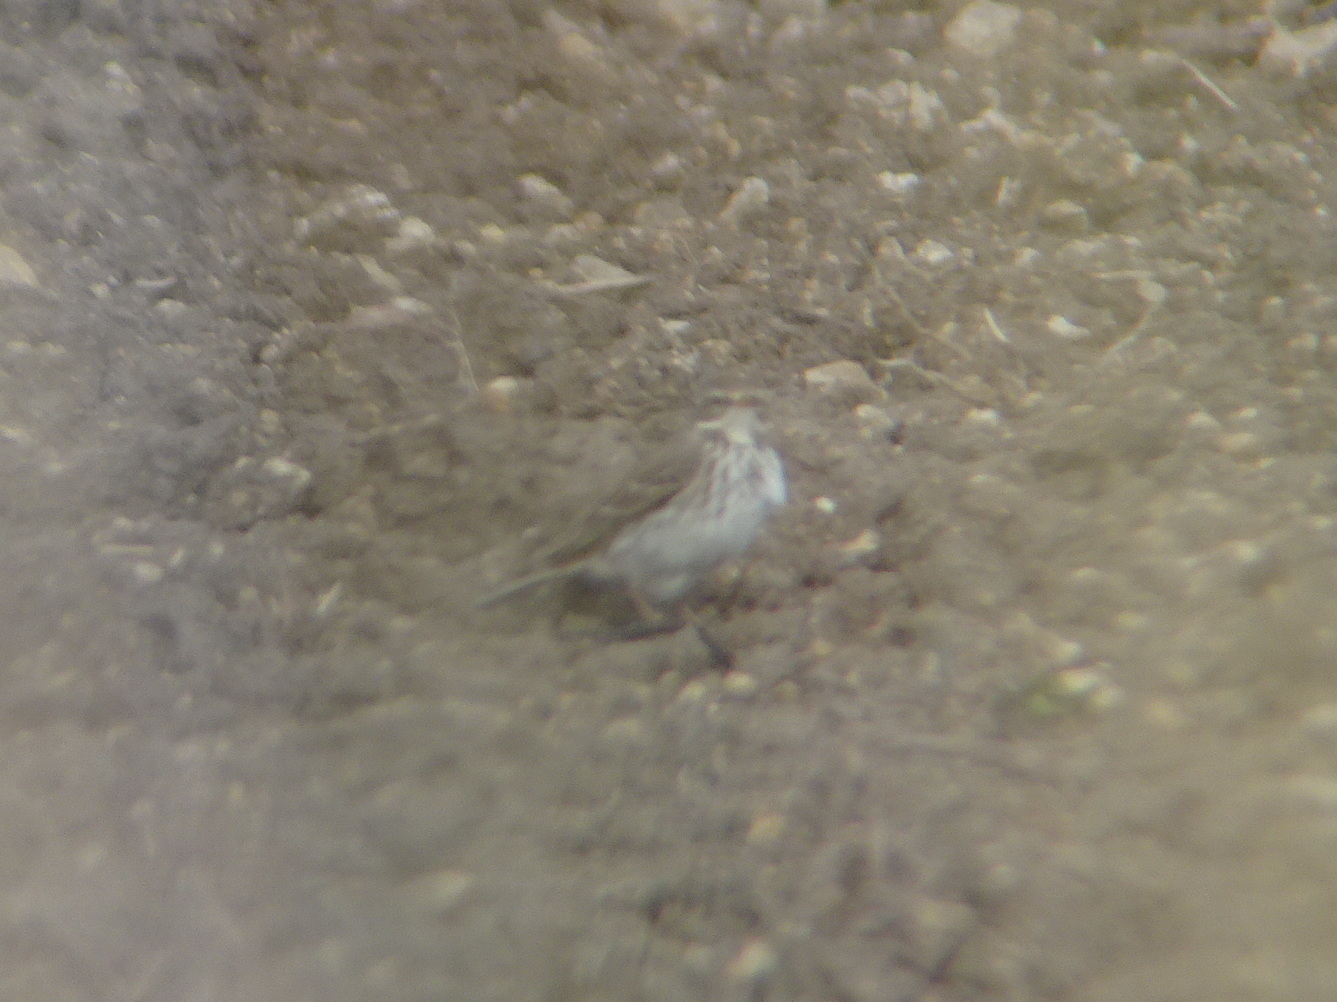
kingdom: Animalia
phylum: Chordata
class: Aves
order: Passeriformes
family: Motacillidae
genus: Anthus
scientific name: Anthus spinoletta
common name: Water pipit
